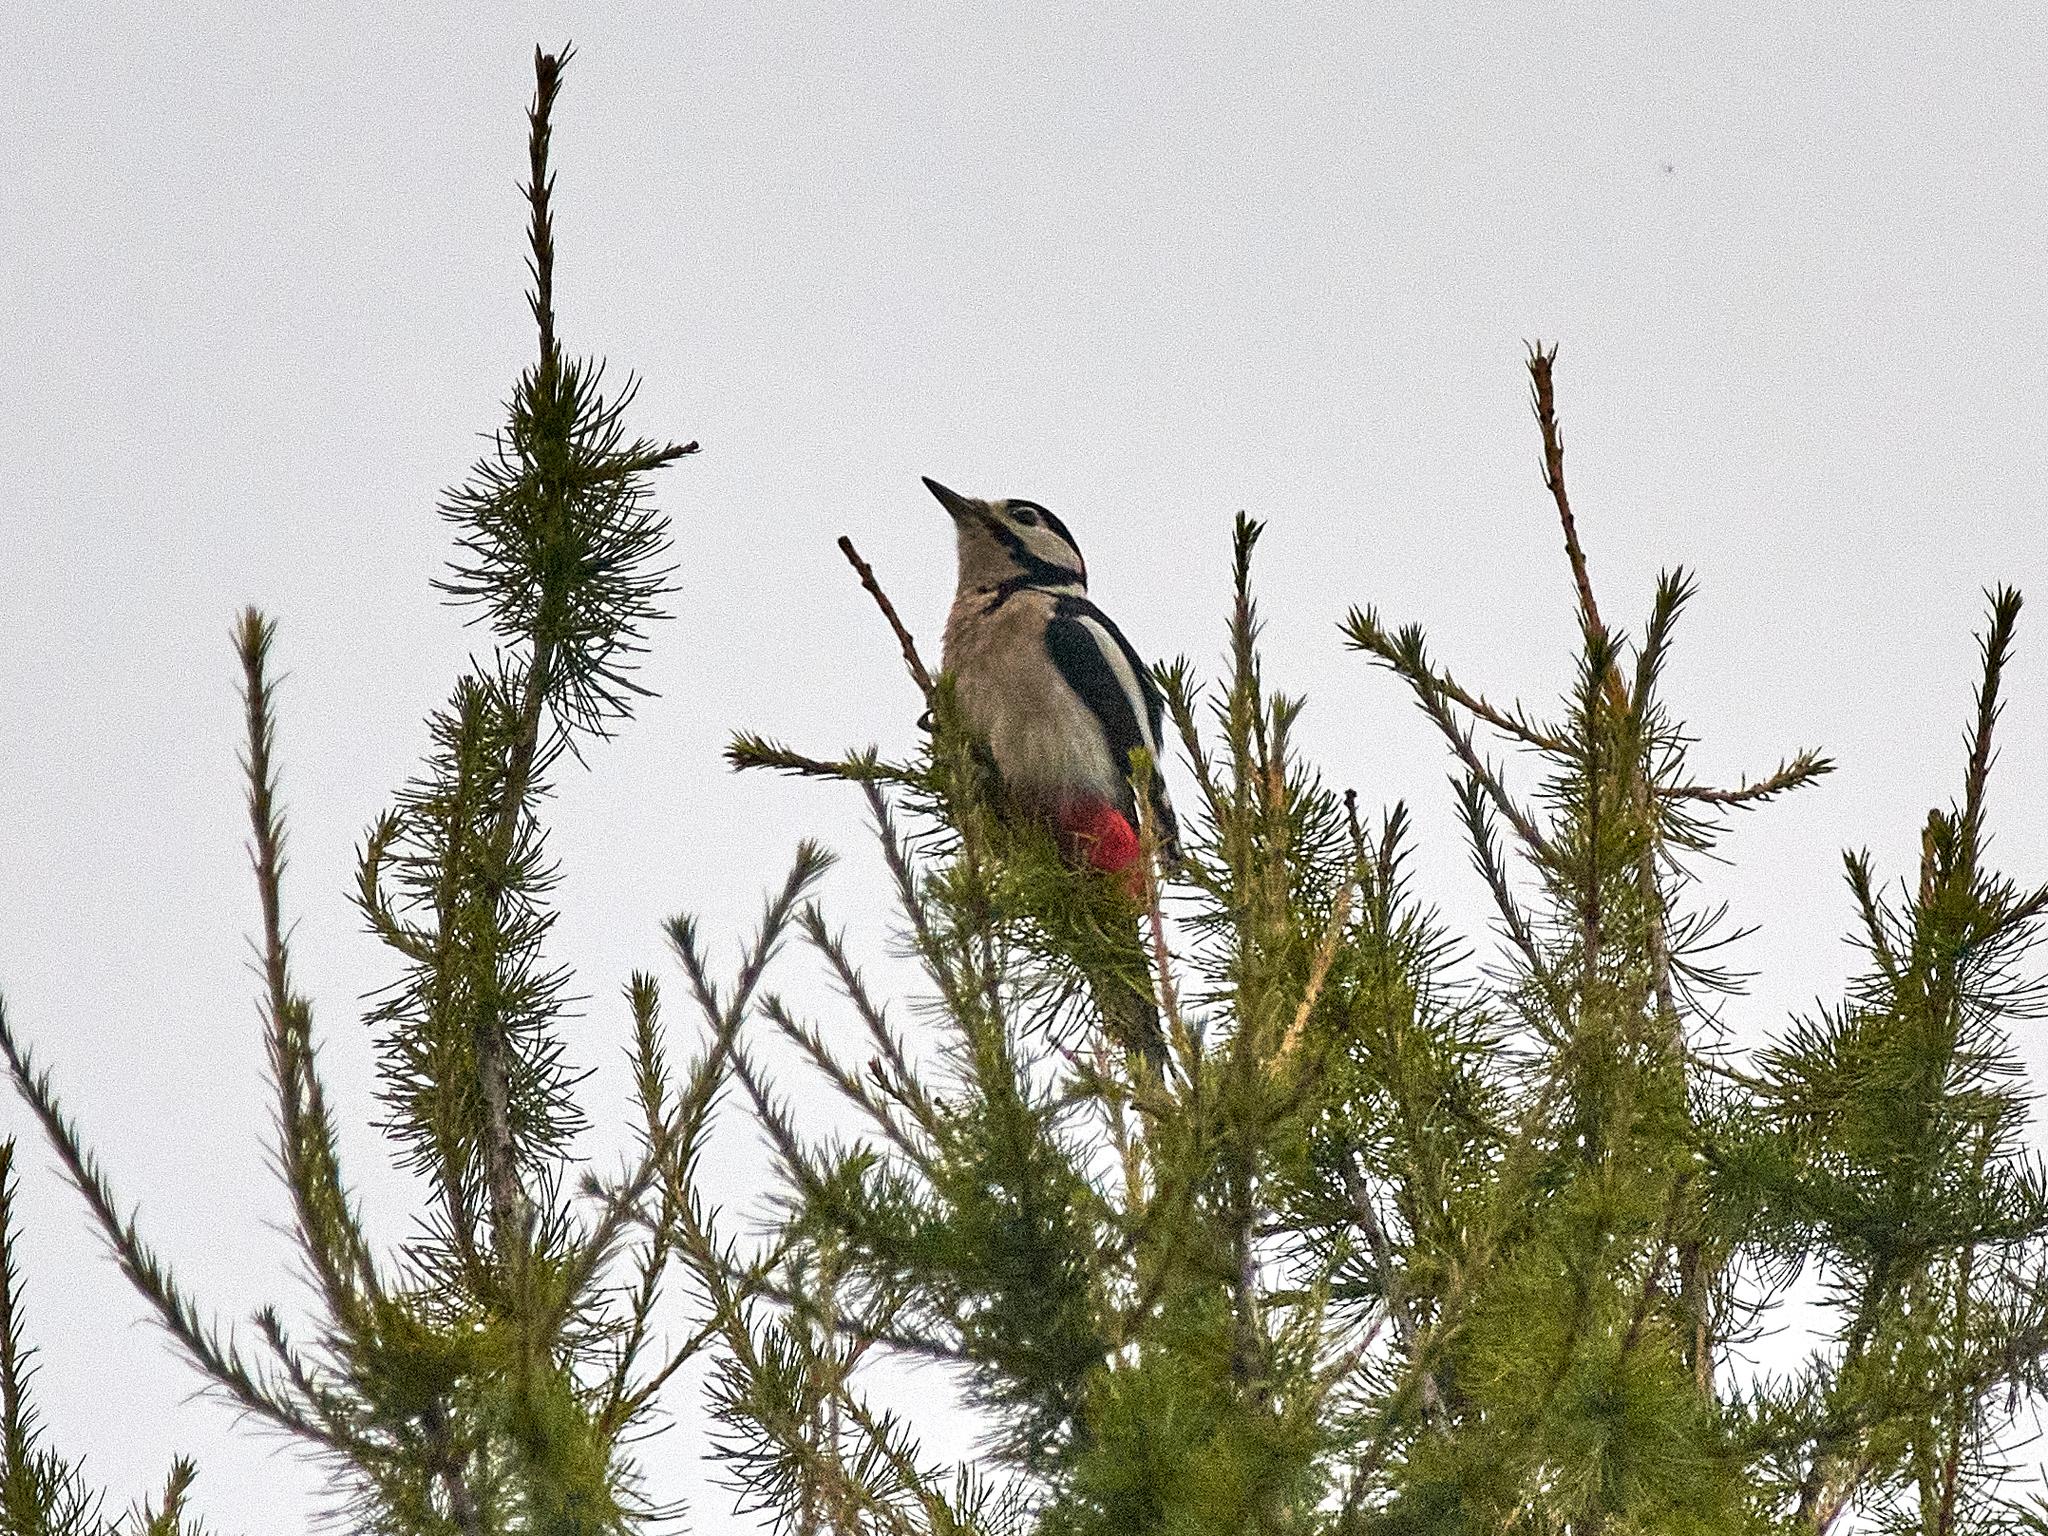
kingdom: Animalia
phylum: Chordata
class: Aves
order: Piciformes
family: Picidae
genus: Dendrocopos
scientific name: Dendrocopos major
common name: Great spotted woodpecker
